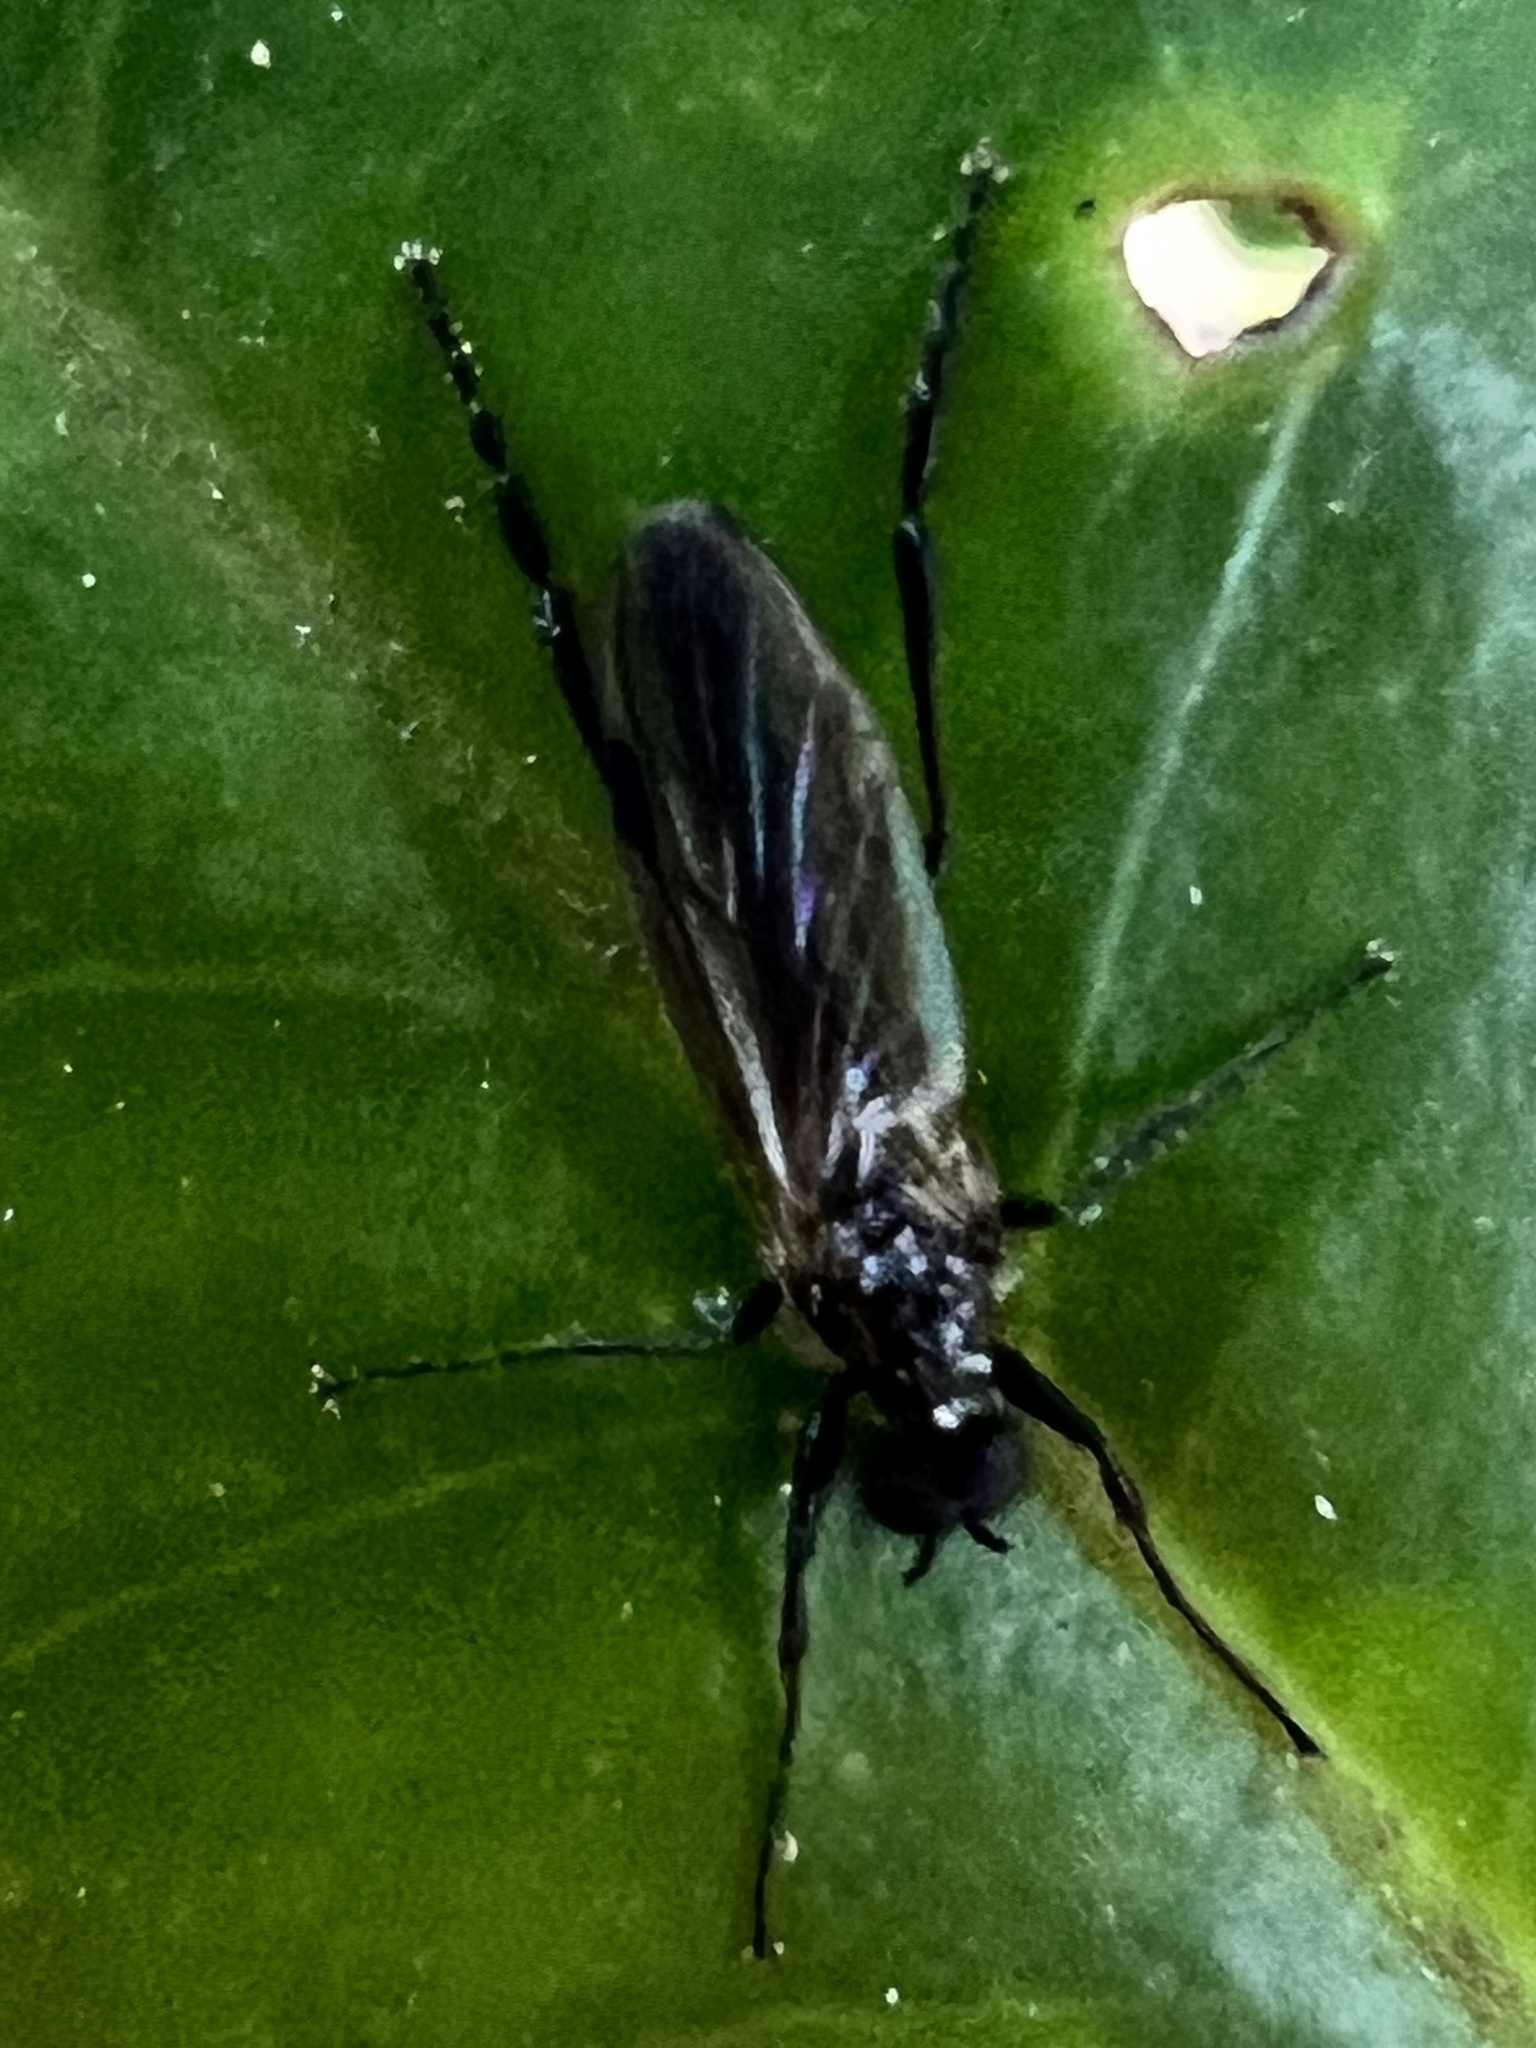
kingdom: Animalia
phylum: Arthropoda
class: Insecta
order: Diptera
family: Bibionidae
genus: Bibio
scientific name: Bibio longipes
